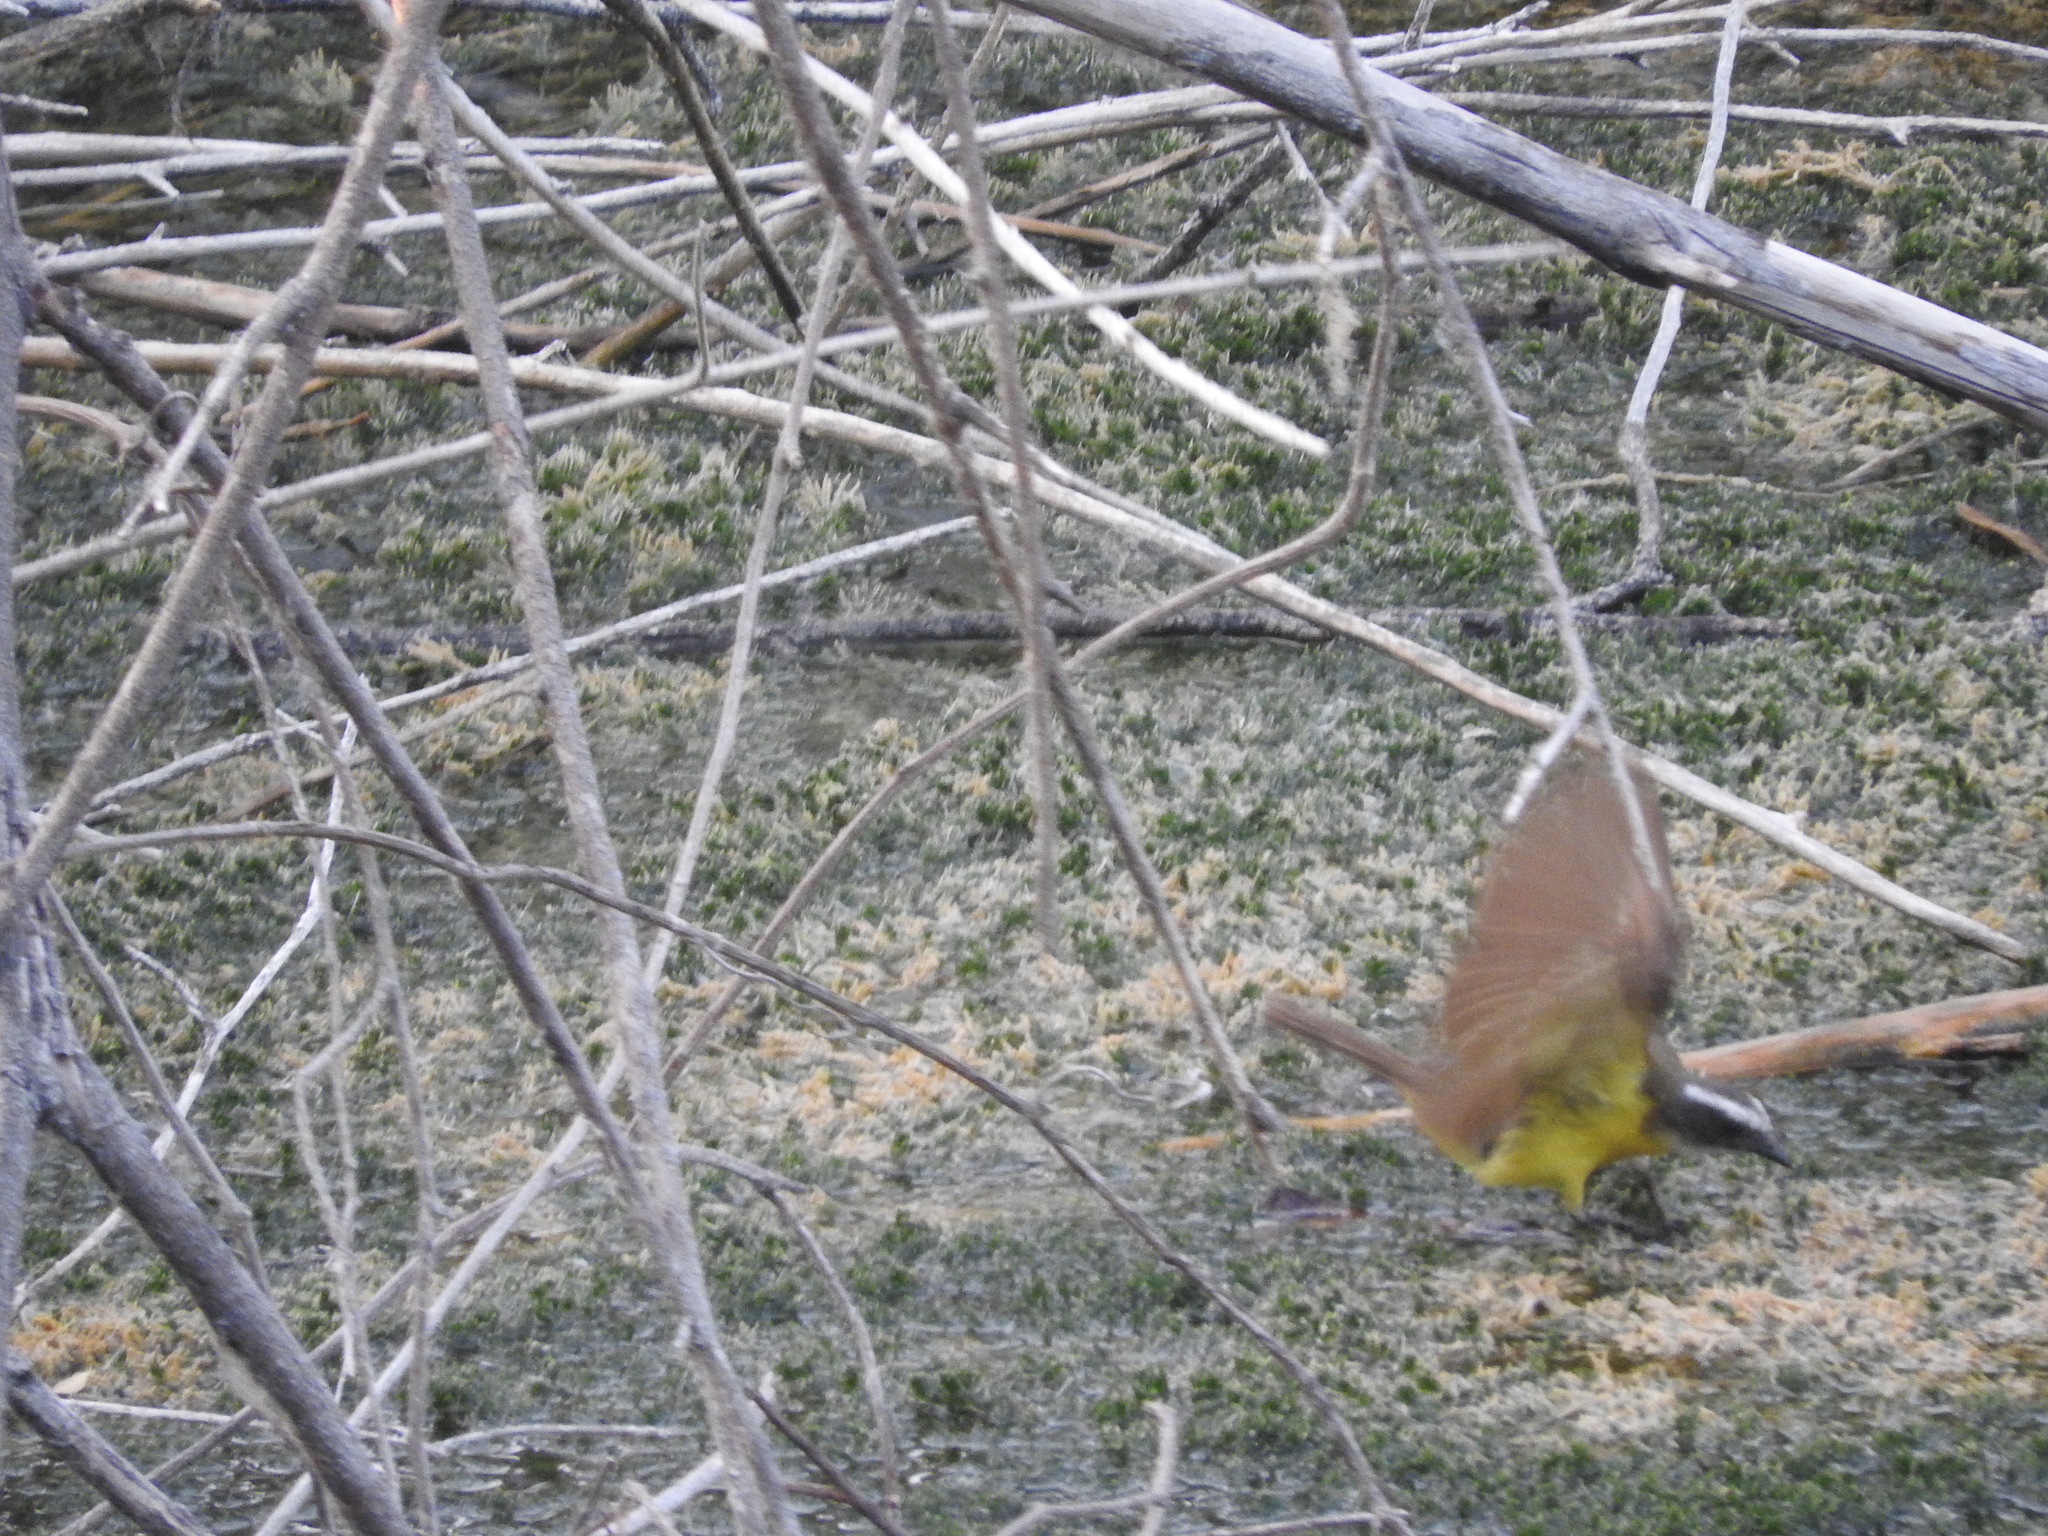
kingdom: Animalia
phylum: Chordata
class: Aves
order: Passeriformes
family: Tyrannidae
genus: Myiozetetes
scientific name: Myiozetetes similis
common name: Social flycatcher
